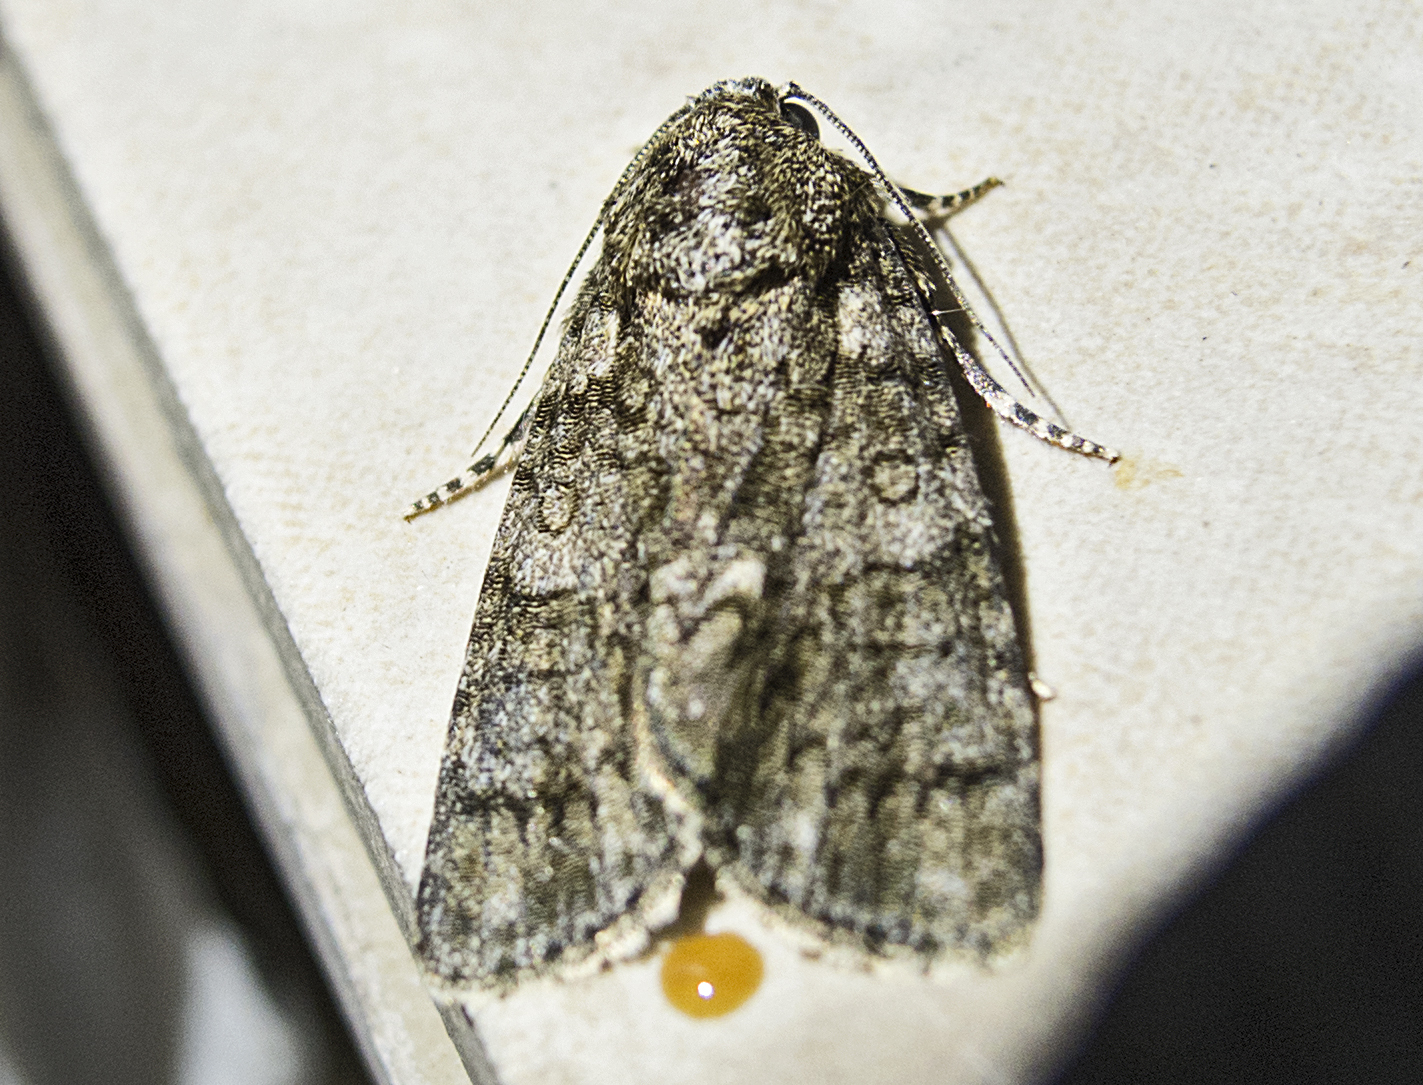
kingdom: Animalia
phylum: Arthropoda
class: Insecta
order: Lepidoptera
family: Noctuidae
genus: Acronicta
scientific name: Acronicta rumicis
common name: Knot grass
